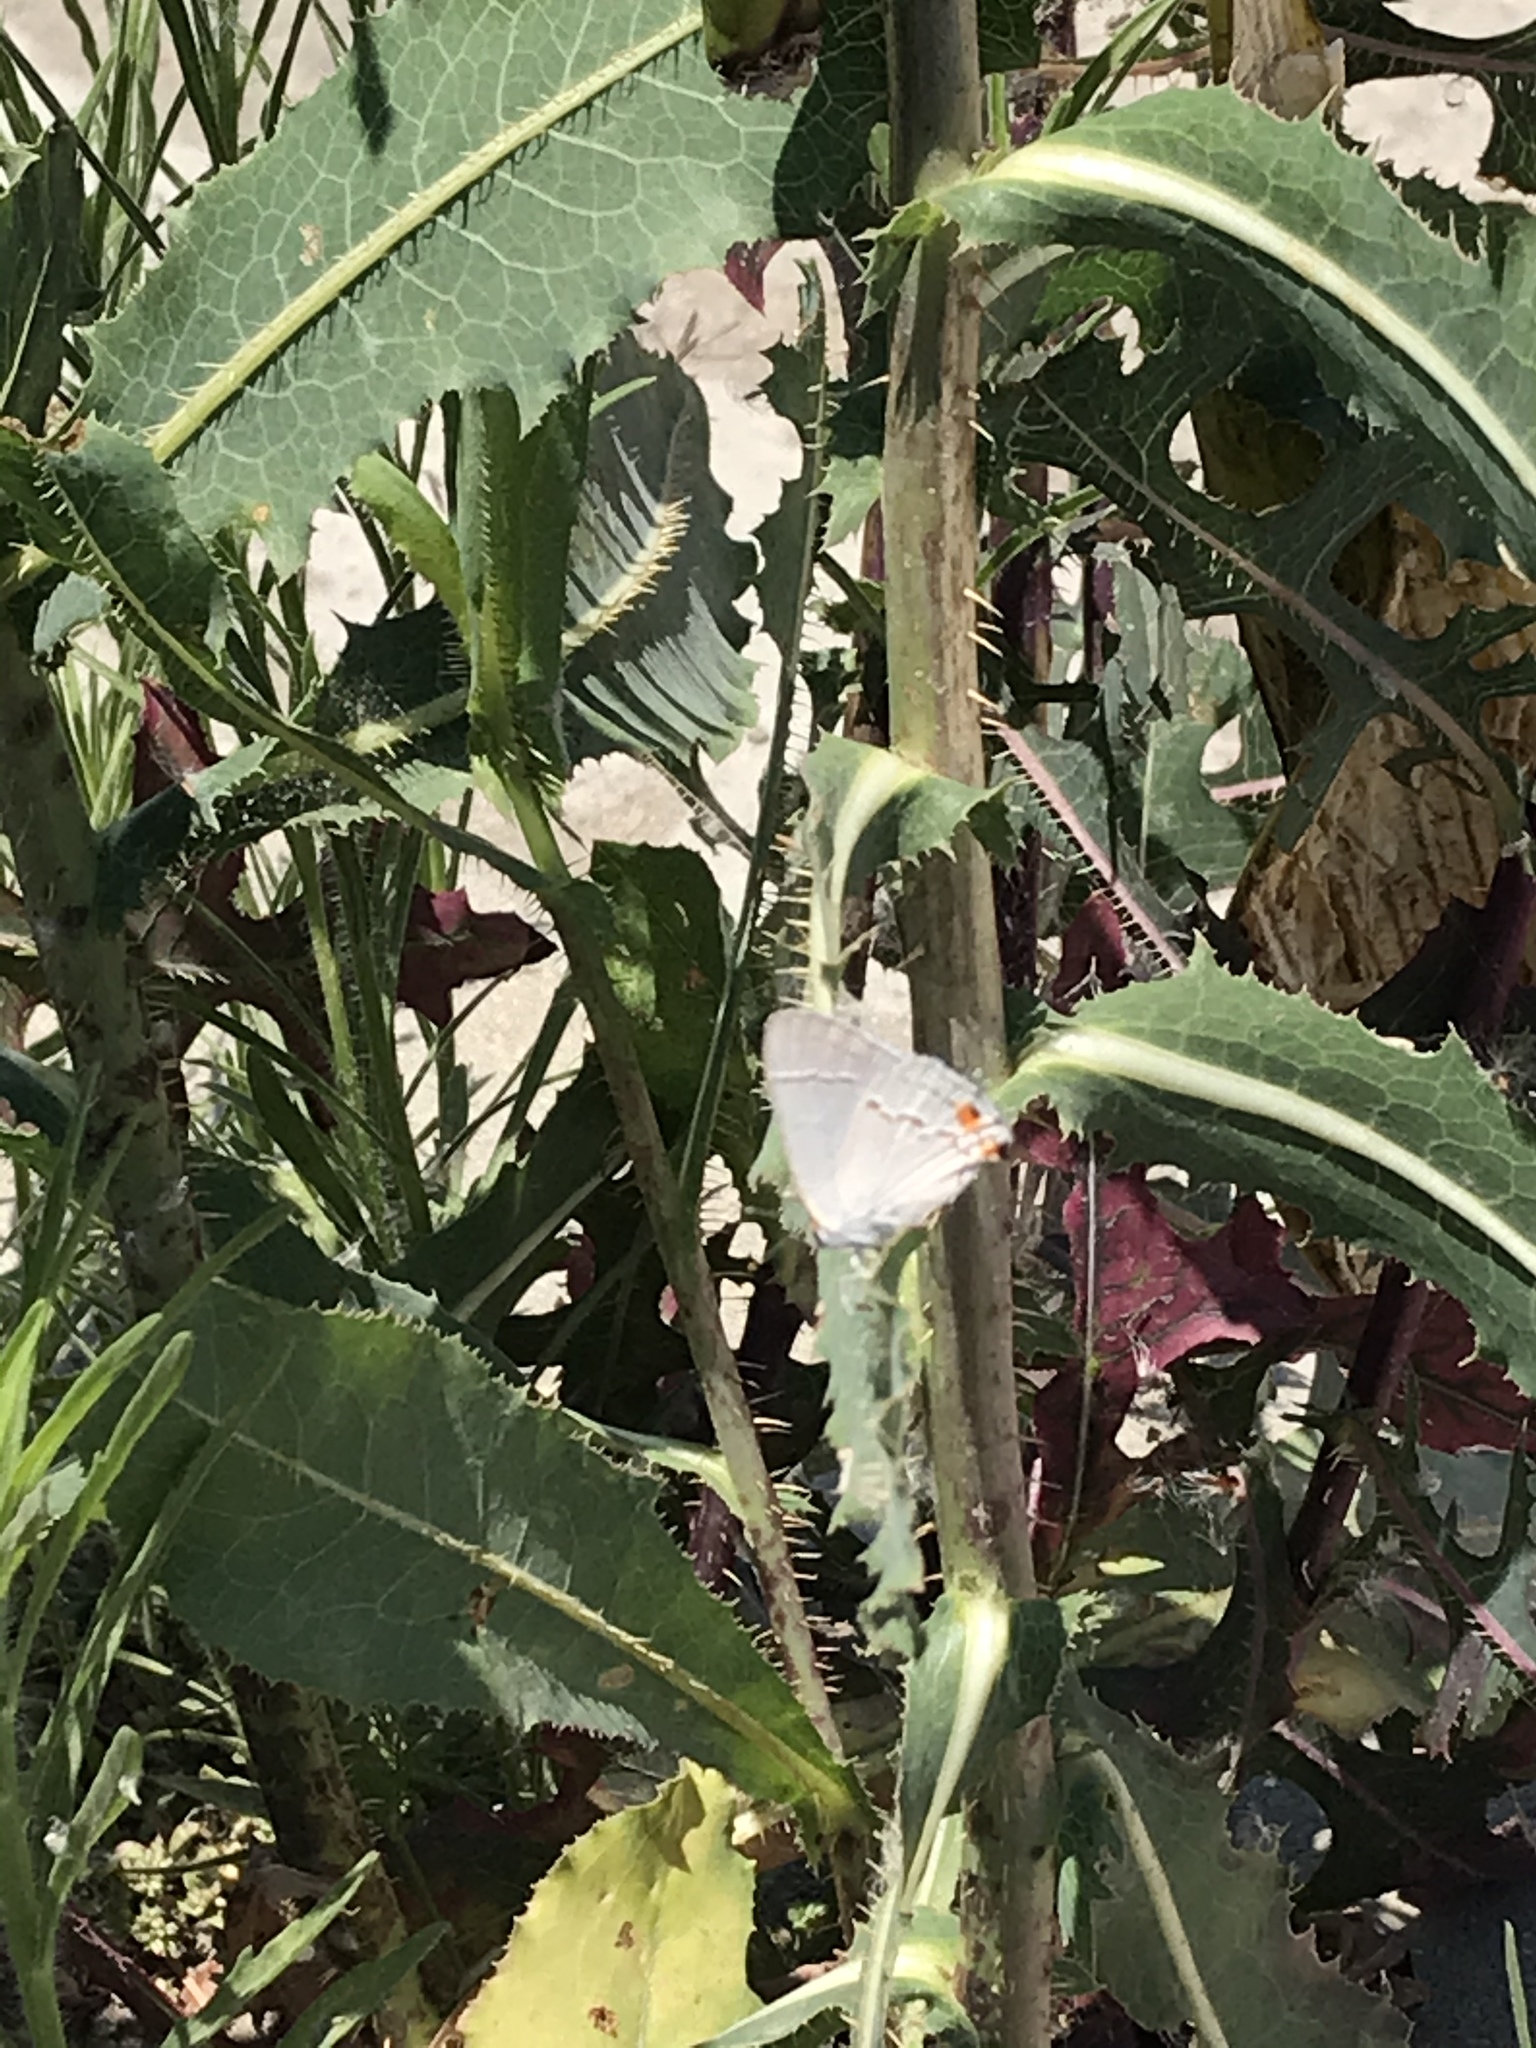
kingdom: Animalia
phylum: Arthropoda
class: Insecta
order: Lepidoptera
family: Lycaenidae
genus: Strymon
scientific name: Strymon melinus
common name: Gray hairstreak
